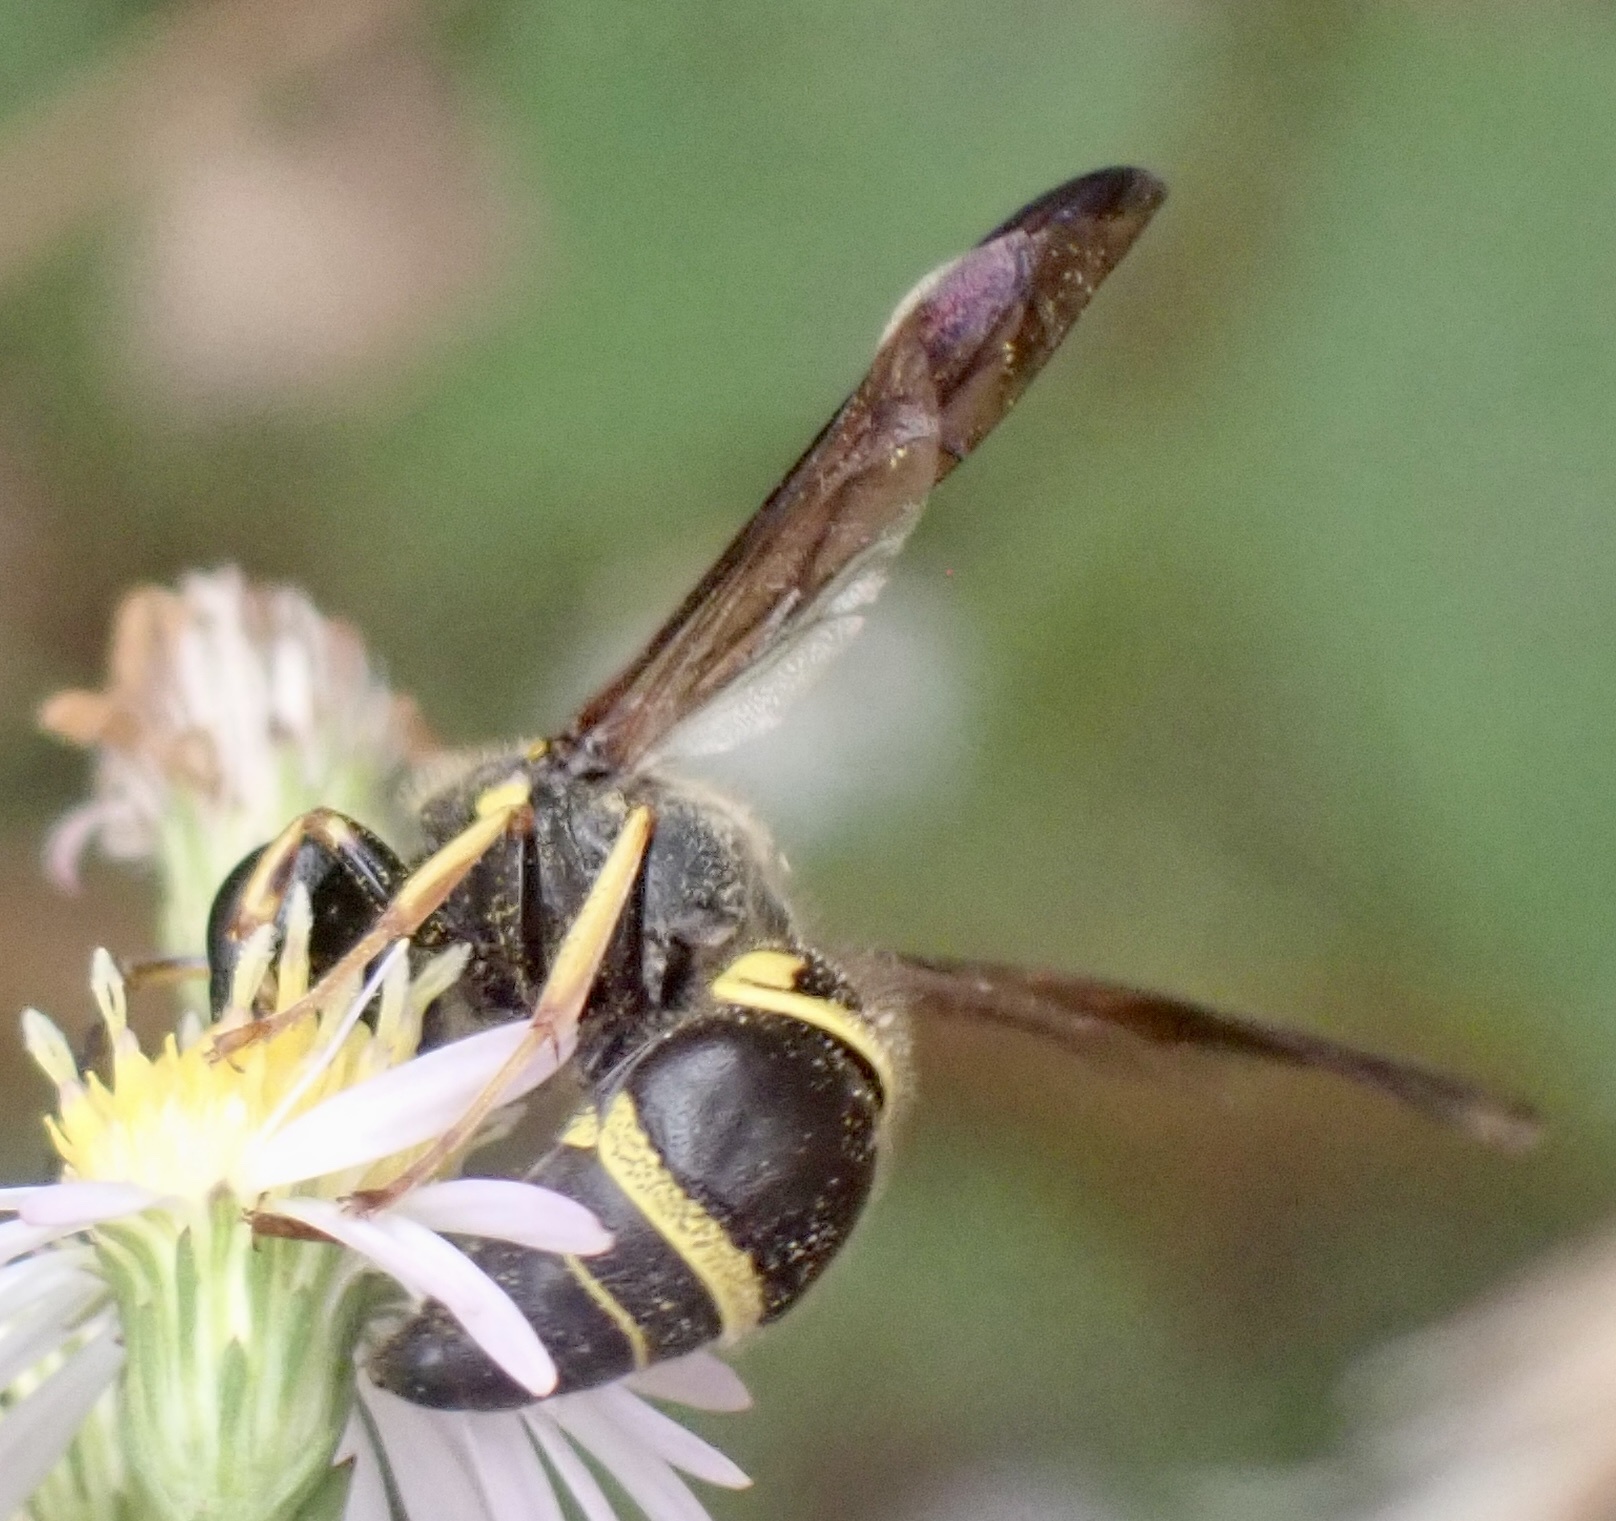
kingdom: Animalia
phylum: Arthropoda
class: Insecta
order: Hymenoptera
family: Vespidae
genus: Ancistrocerus
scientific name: Ancistrocerus campestris
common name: Smiling mason wasp
